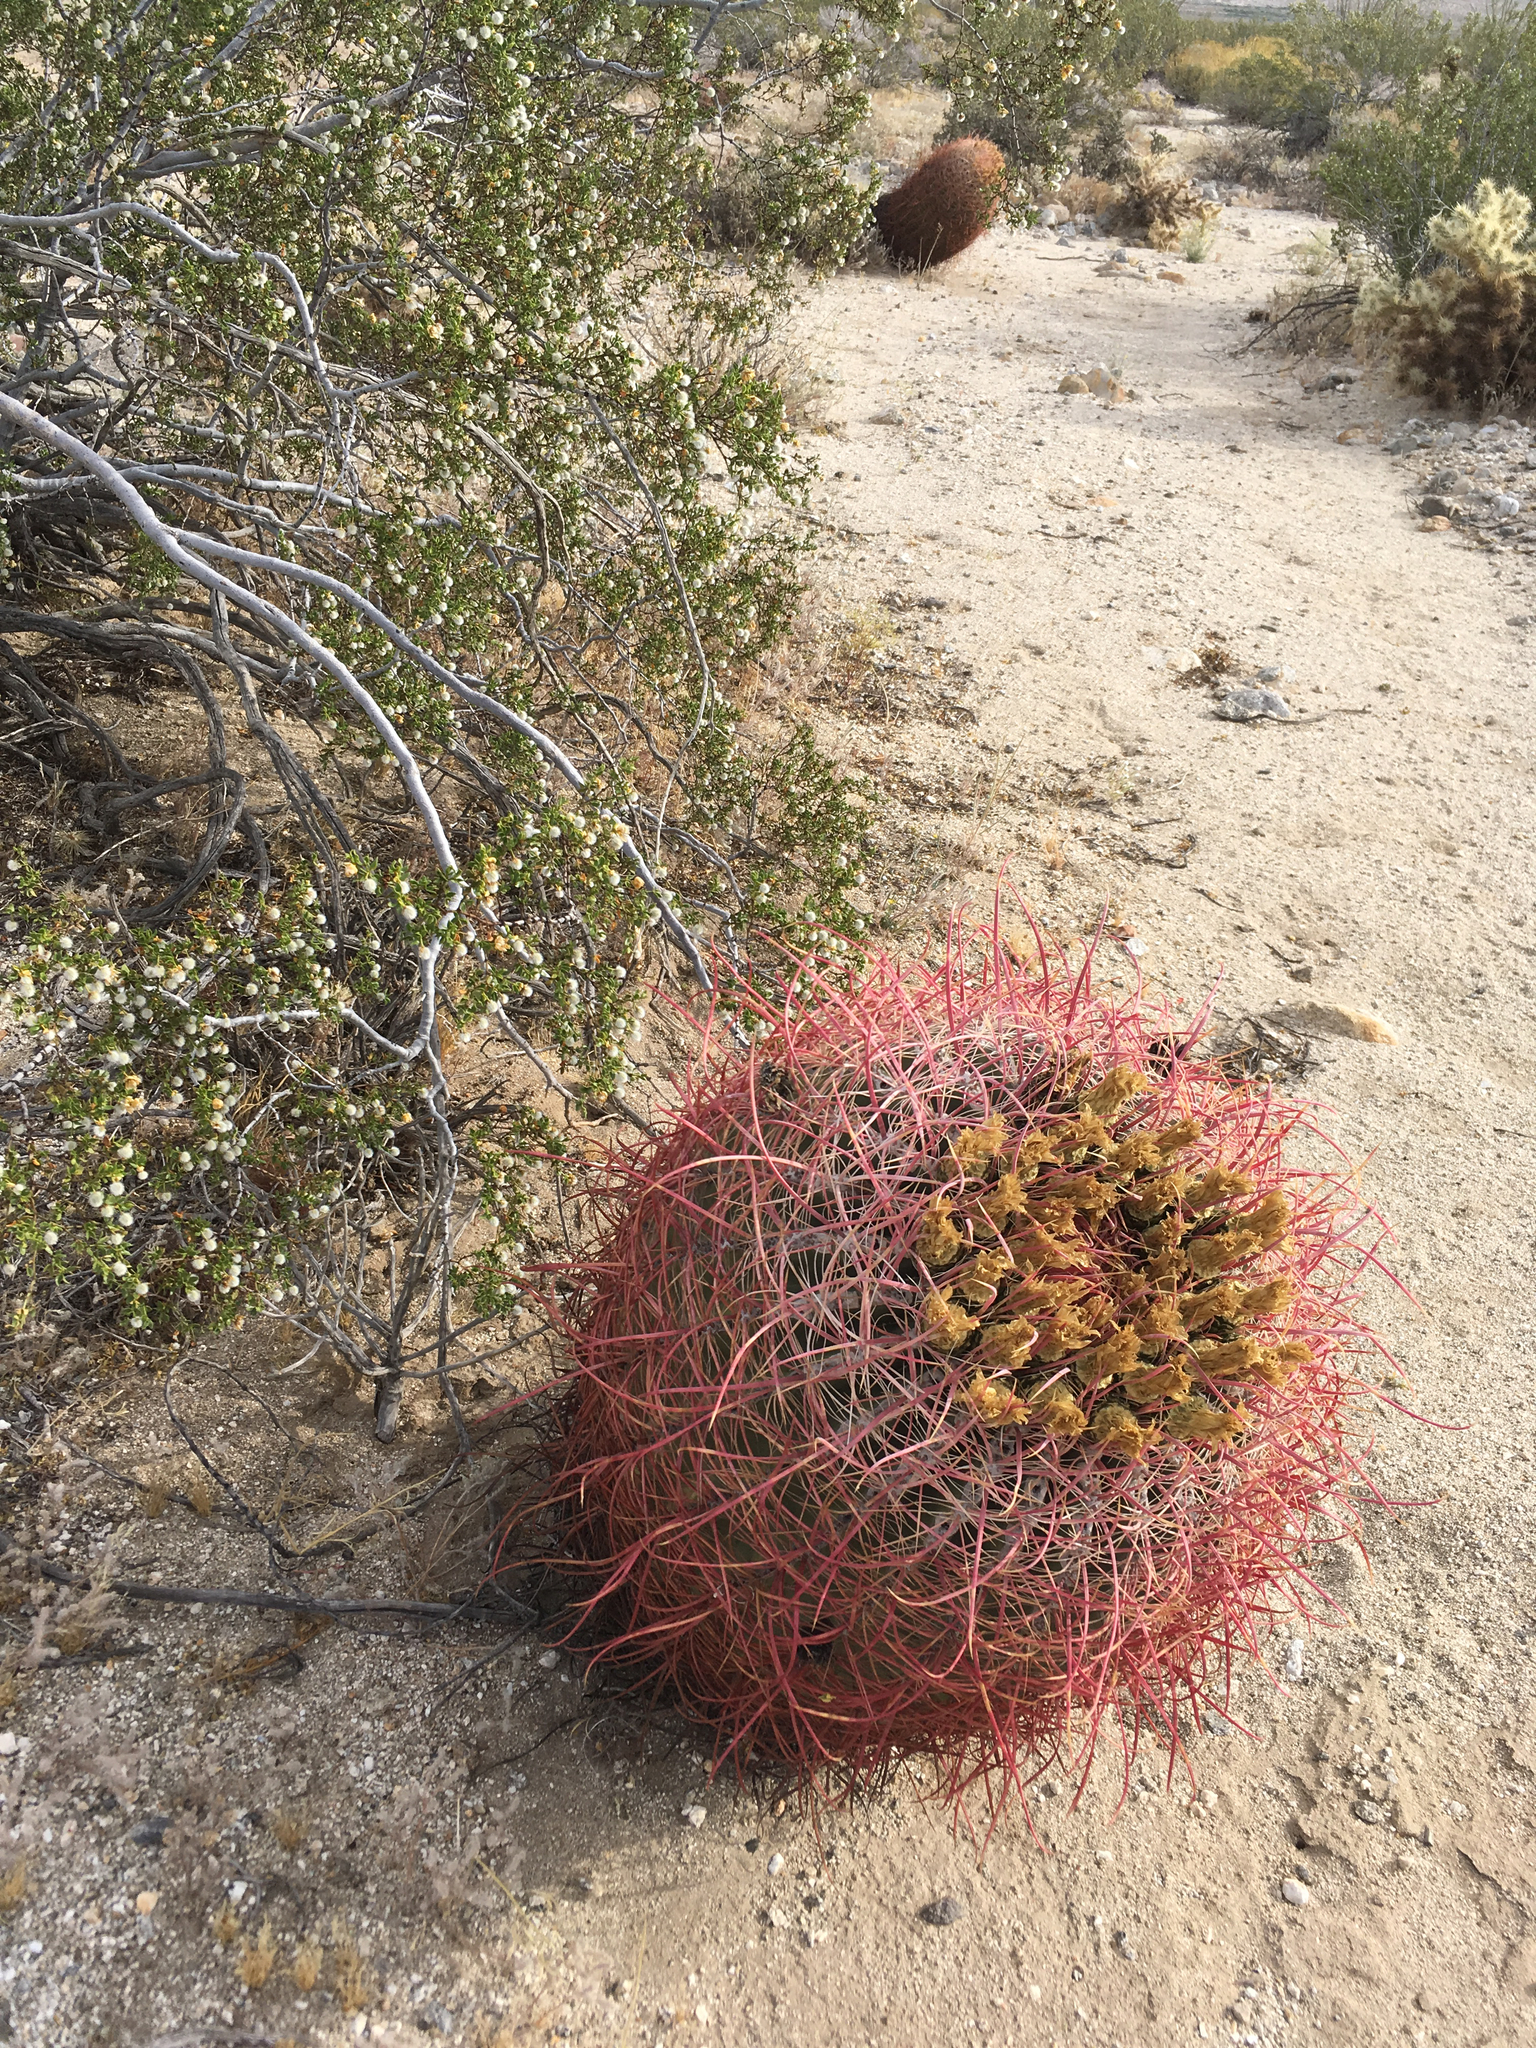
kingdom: Plantae
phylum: Tracheophyta
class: Magnoliopsida
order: Caryophyllales
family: Cactaceae
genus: Ferocactus
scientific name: Ferocactus cylindraceus
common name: California barrel cactus
